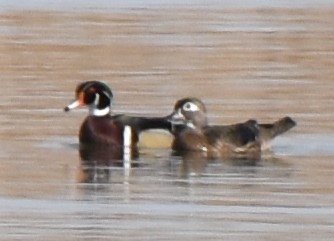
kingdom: Animalia
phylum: Chordata
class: Aves
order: Anseriformes
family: Anatidae
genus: Aix
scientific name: Aix sponsa
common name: Wood duck
